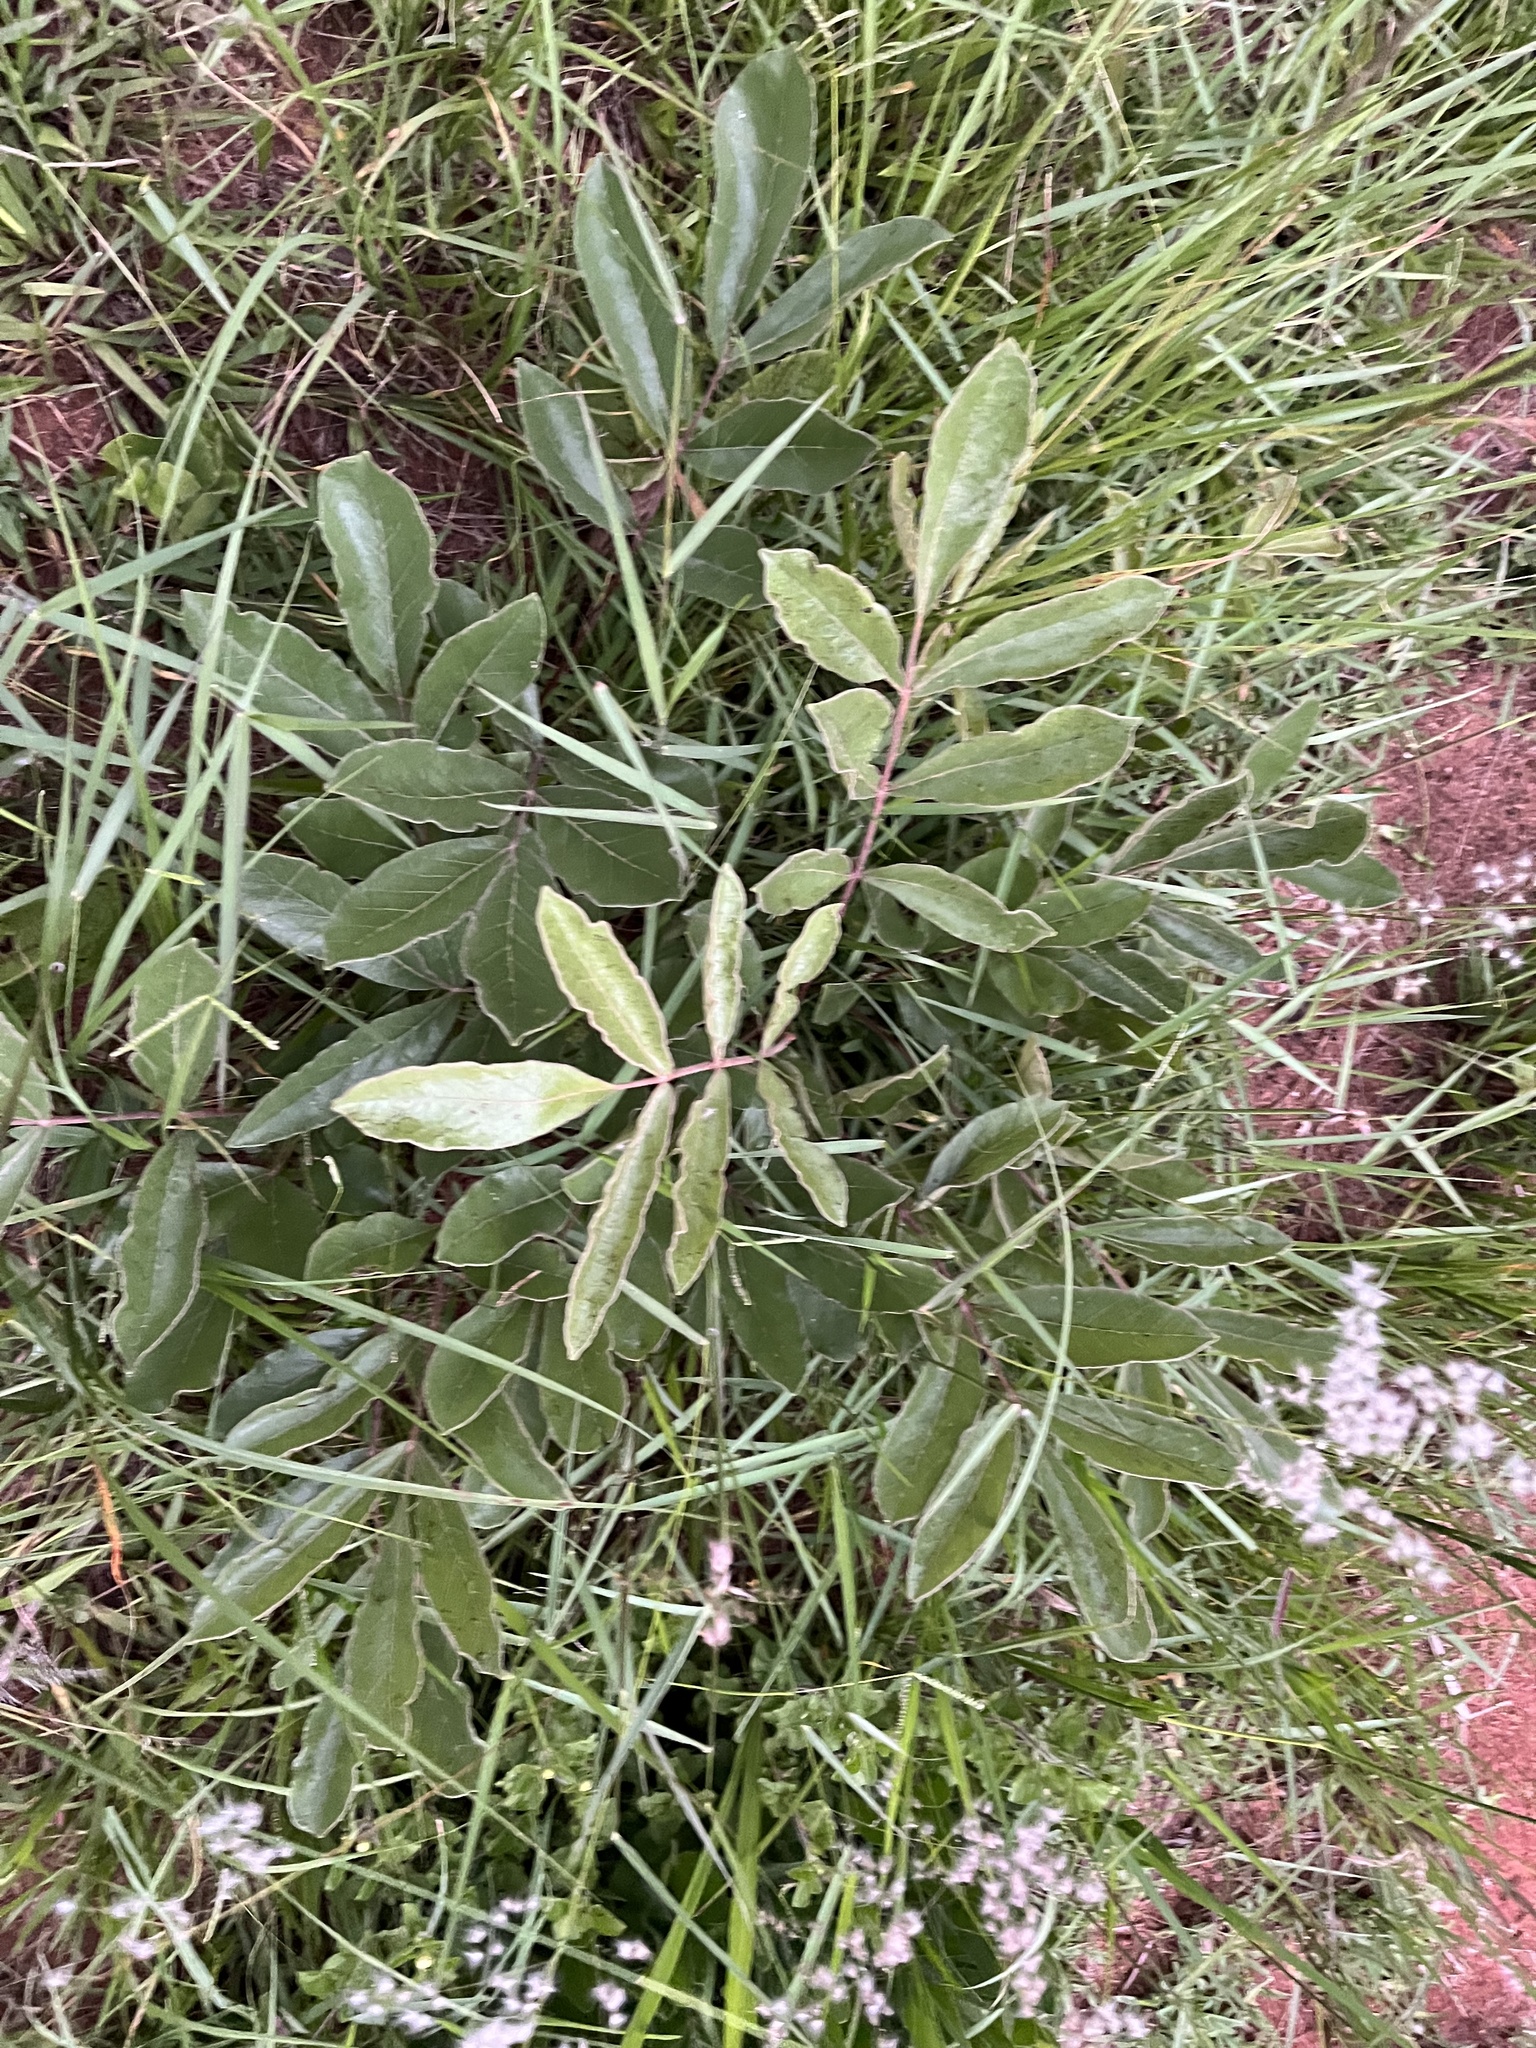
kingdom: Plantae
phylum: Tracheophyta
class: Magnoliopsida
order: Sapindales
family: Anacardiaceae
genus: Lannea
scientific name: Lannea edulis
